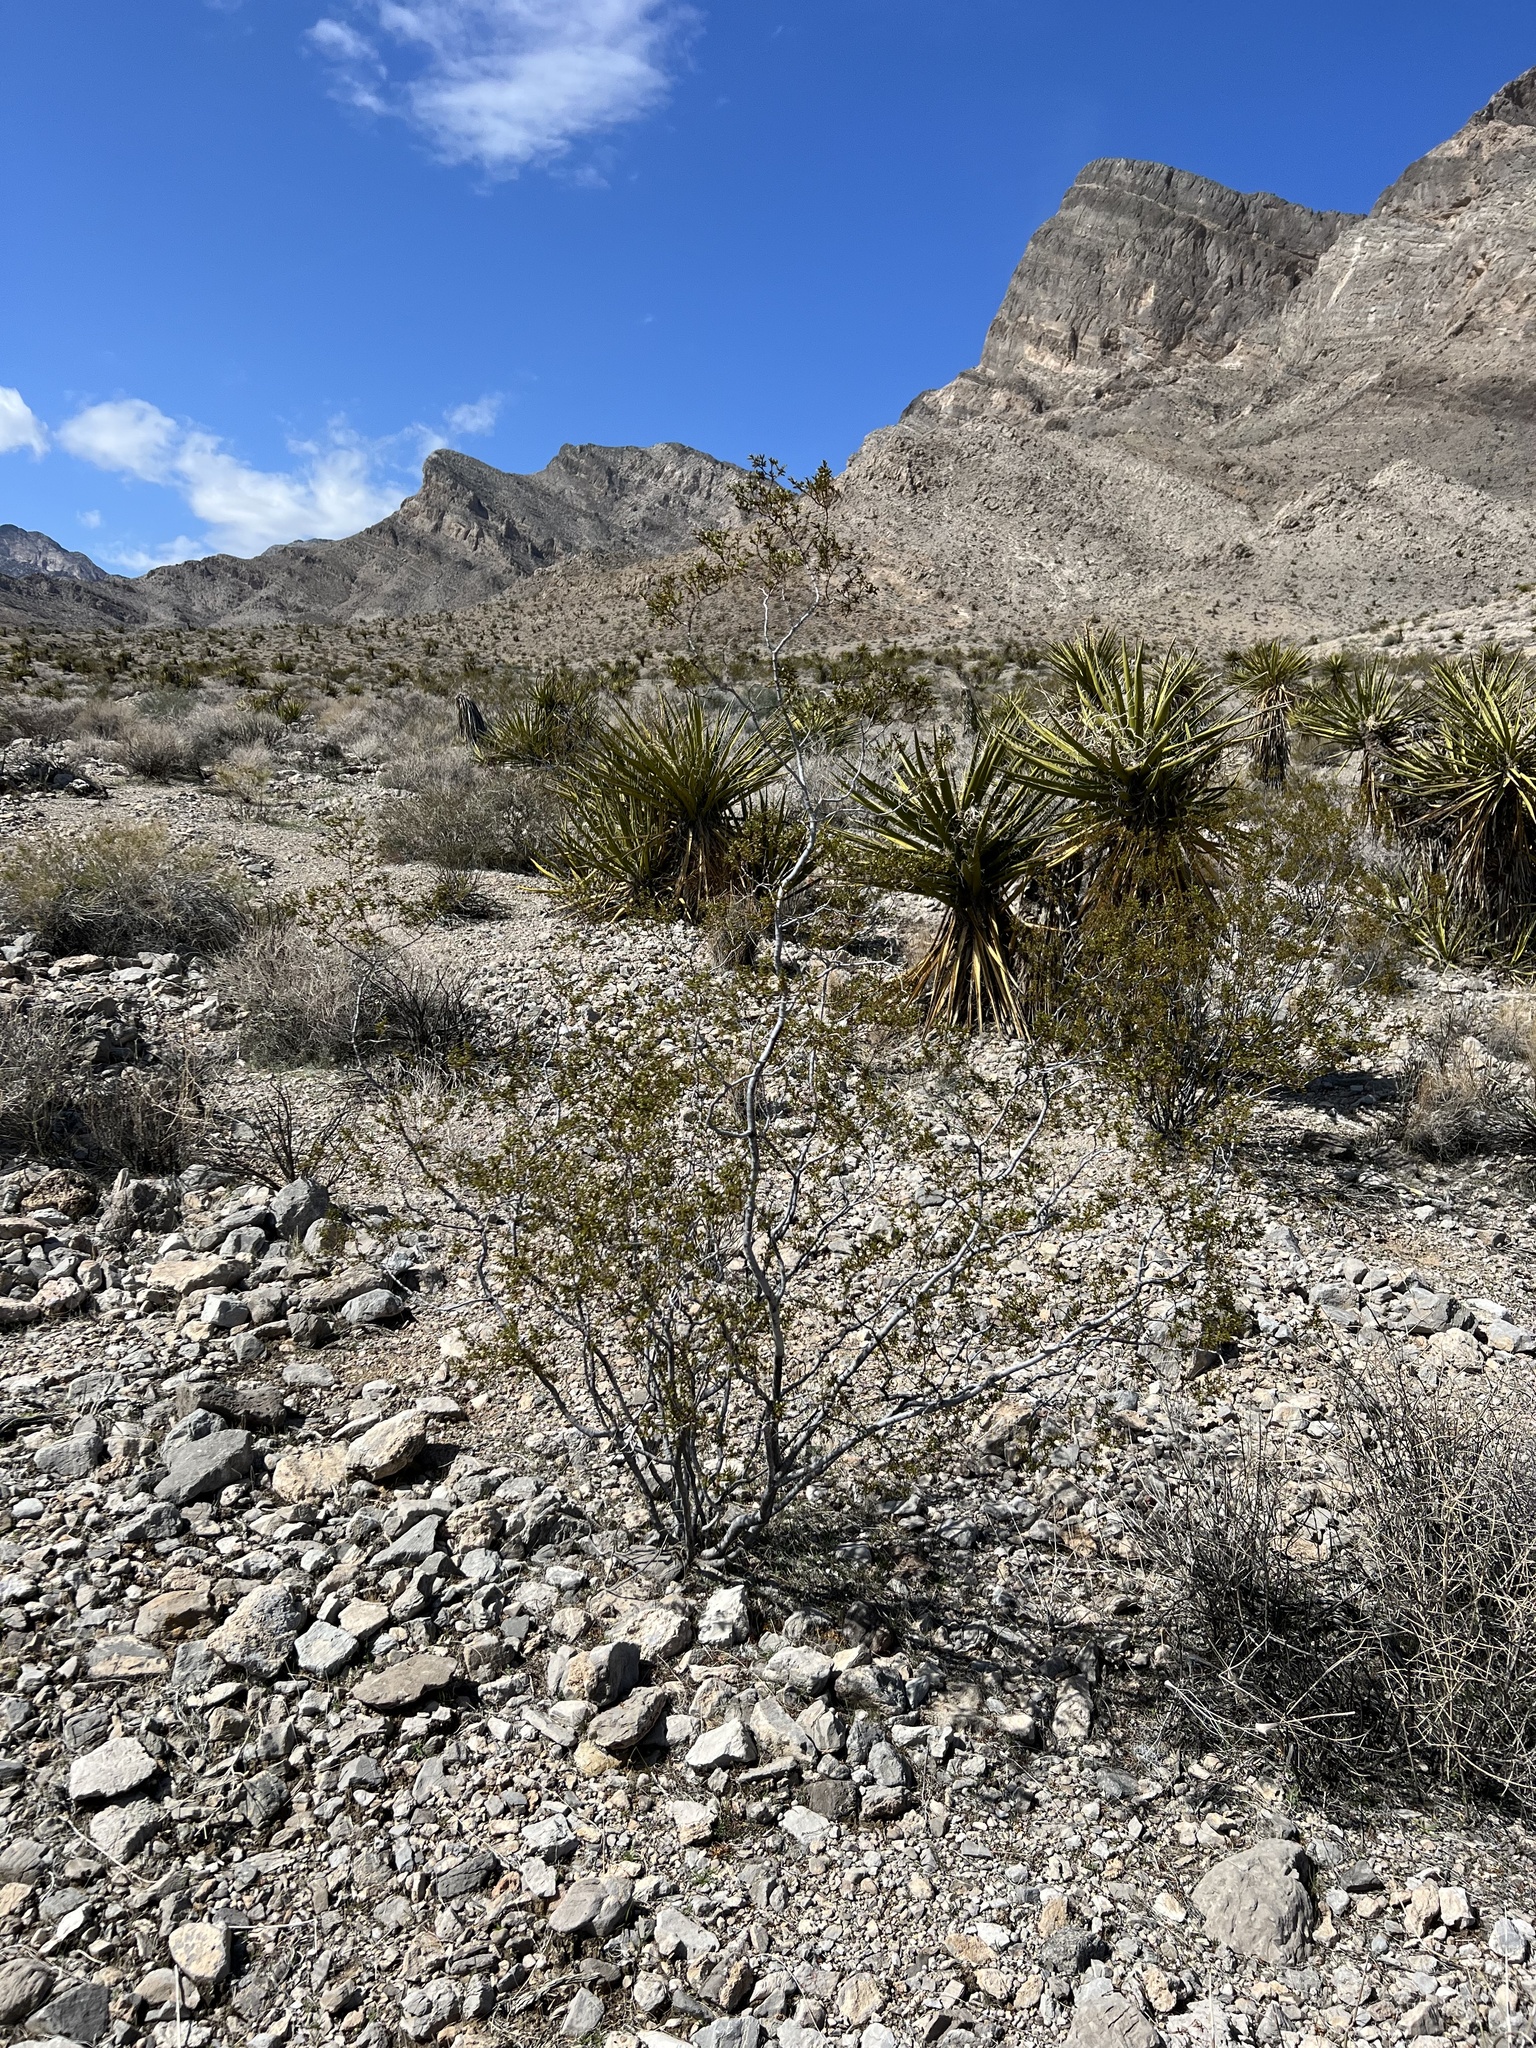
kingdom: Plantae
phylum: Tracheophyta
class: Magnoliopsida
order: Zygophyllales
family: Zygophyllaceae
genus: Larrea
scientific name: Larrea tridentata
